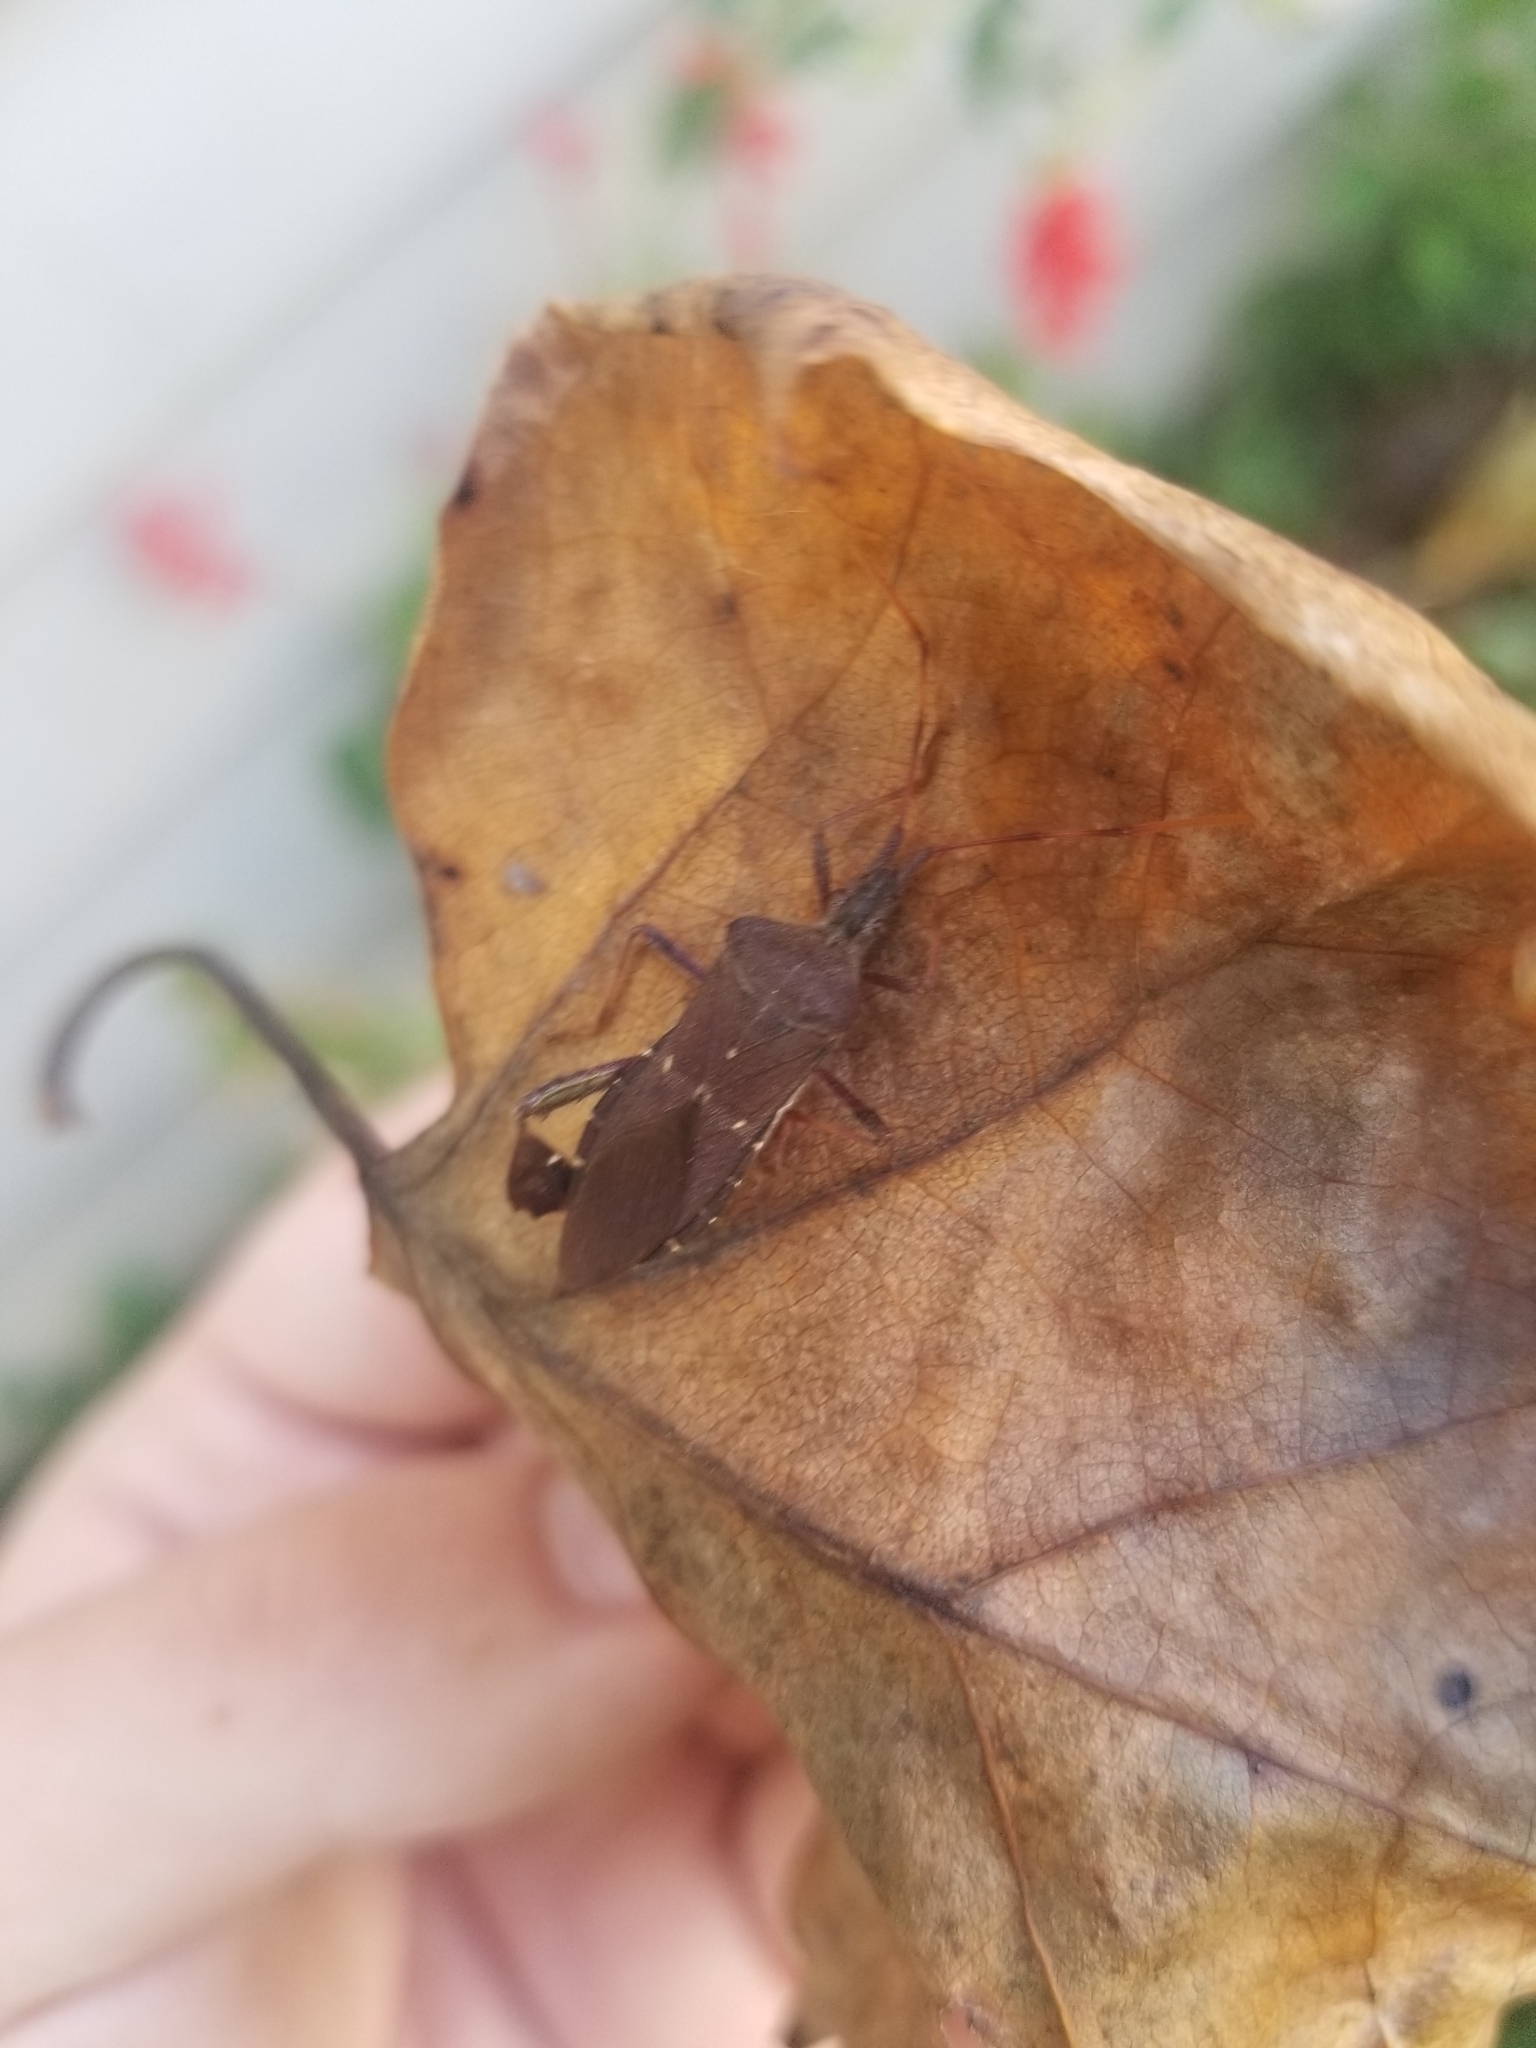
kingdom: Animalia
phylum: Arthropoda
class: Insecta
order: Hemiptera
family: Coreidae
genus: Leptoglossus
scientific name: Leptoglossus oppositus
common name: Northern leaf-footed bug
